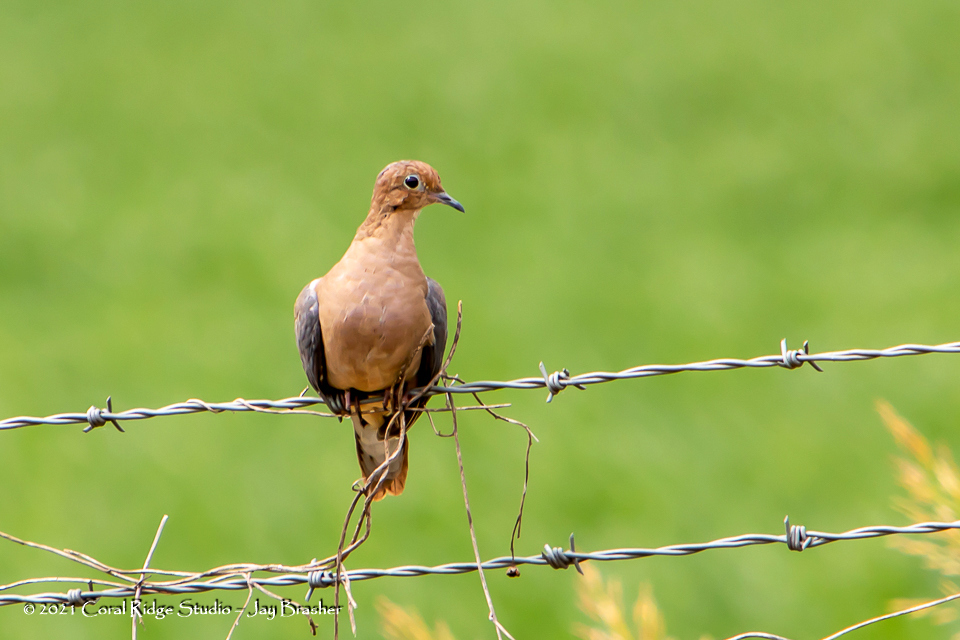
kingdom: Animalia
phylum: Chordata
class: Aves
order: Columbiformes
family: Columbidae
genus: Zenaida
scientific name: Zenaida macroura
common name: Mourning dove
